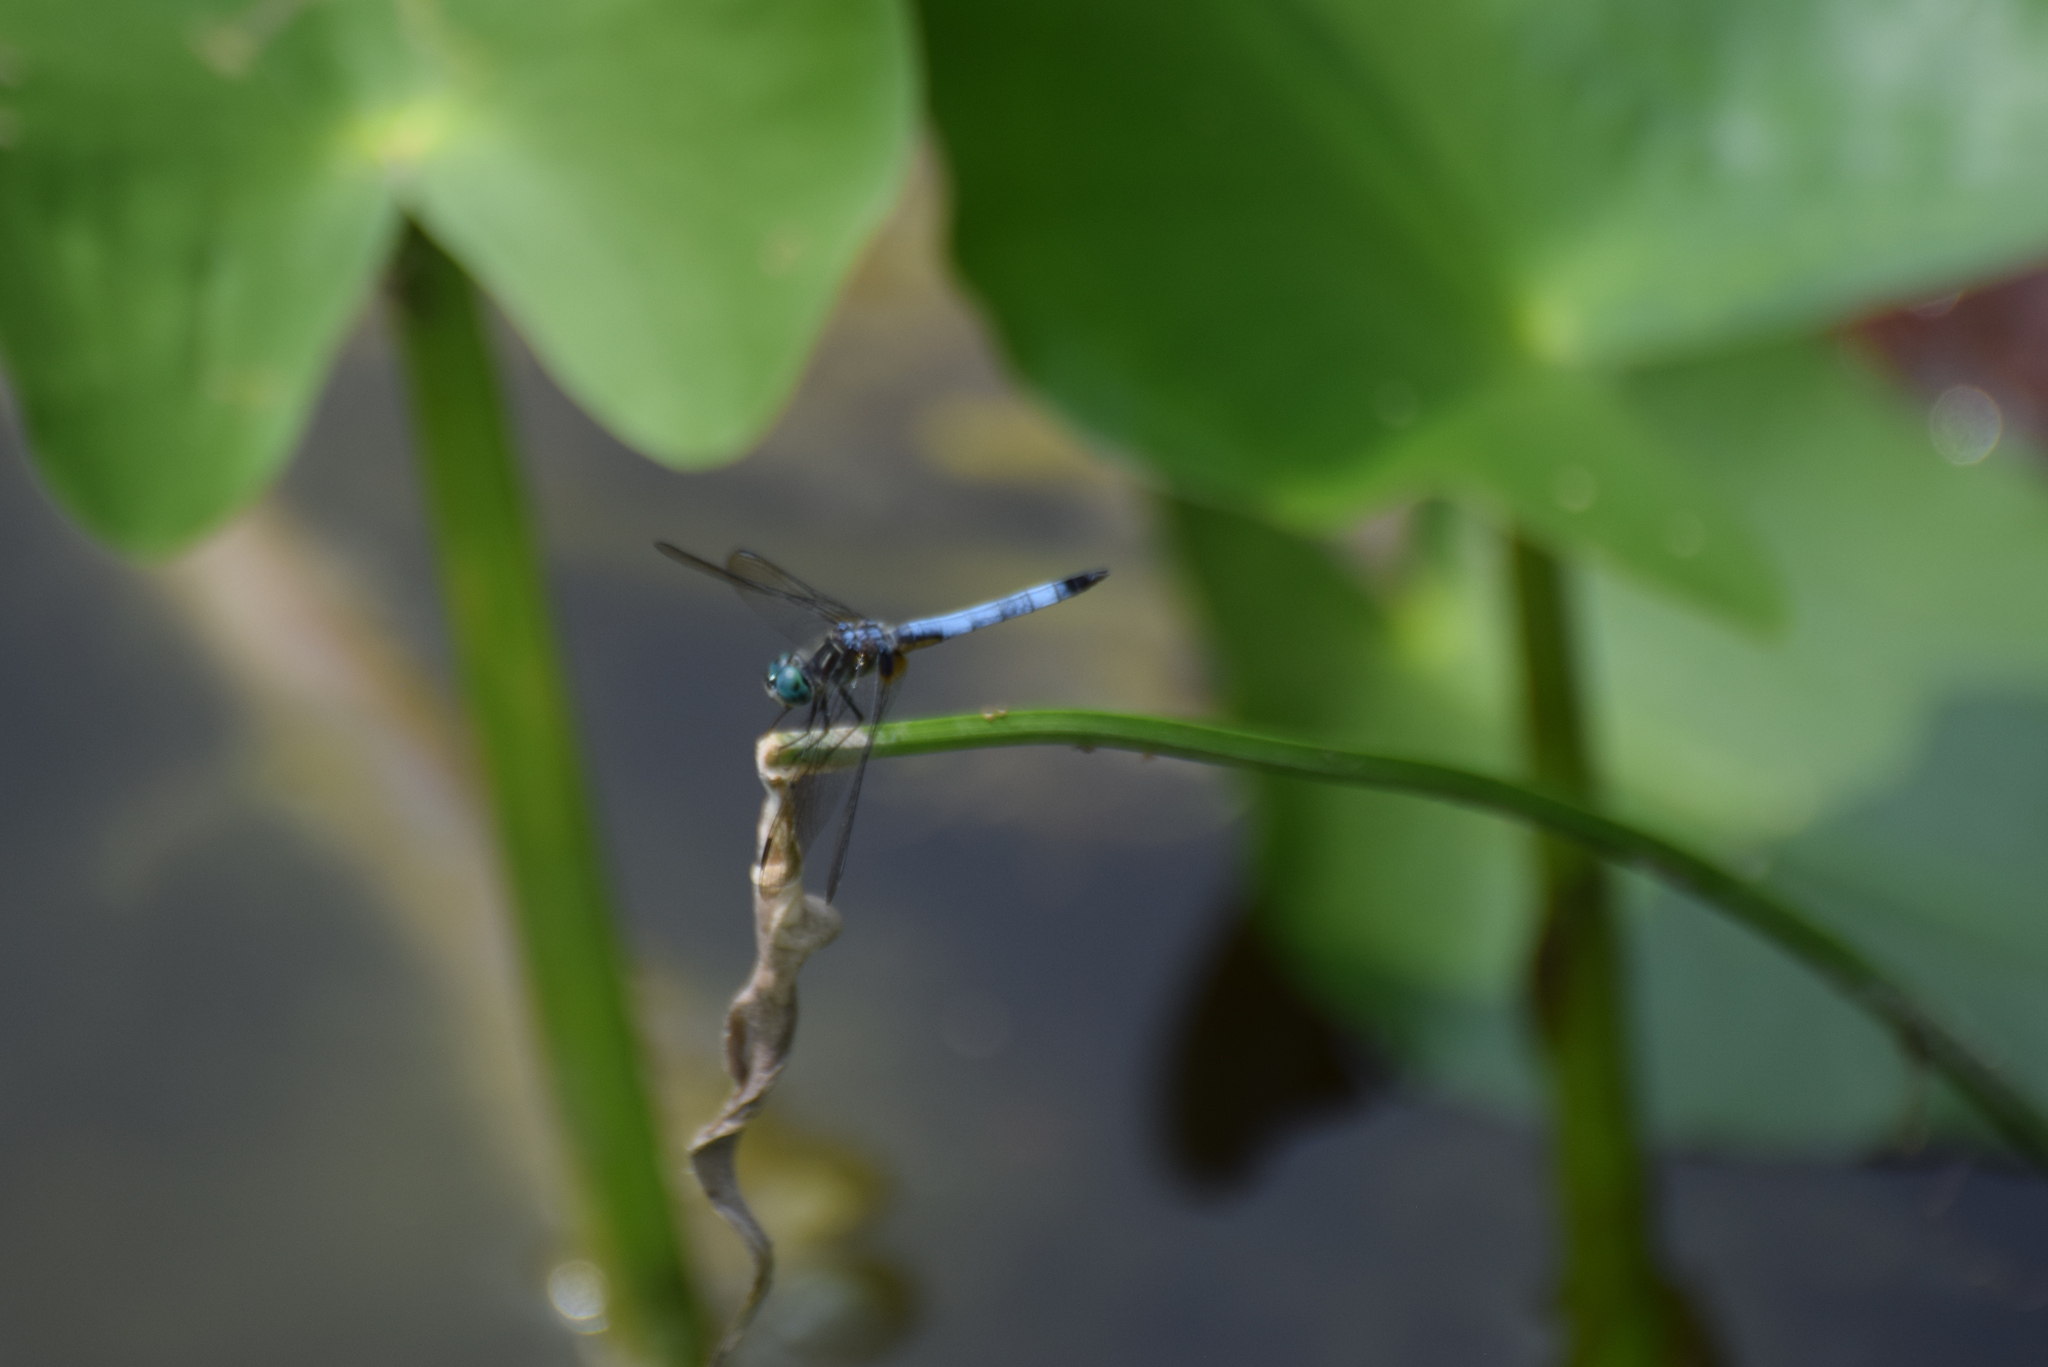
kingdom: Animalia
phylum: Arthropoda
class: Insecta
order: Odonata
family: Libellulidae
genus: Pachydiplax
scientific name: Pachydiplax longipennis
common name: Blue dasher
